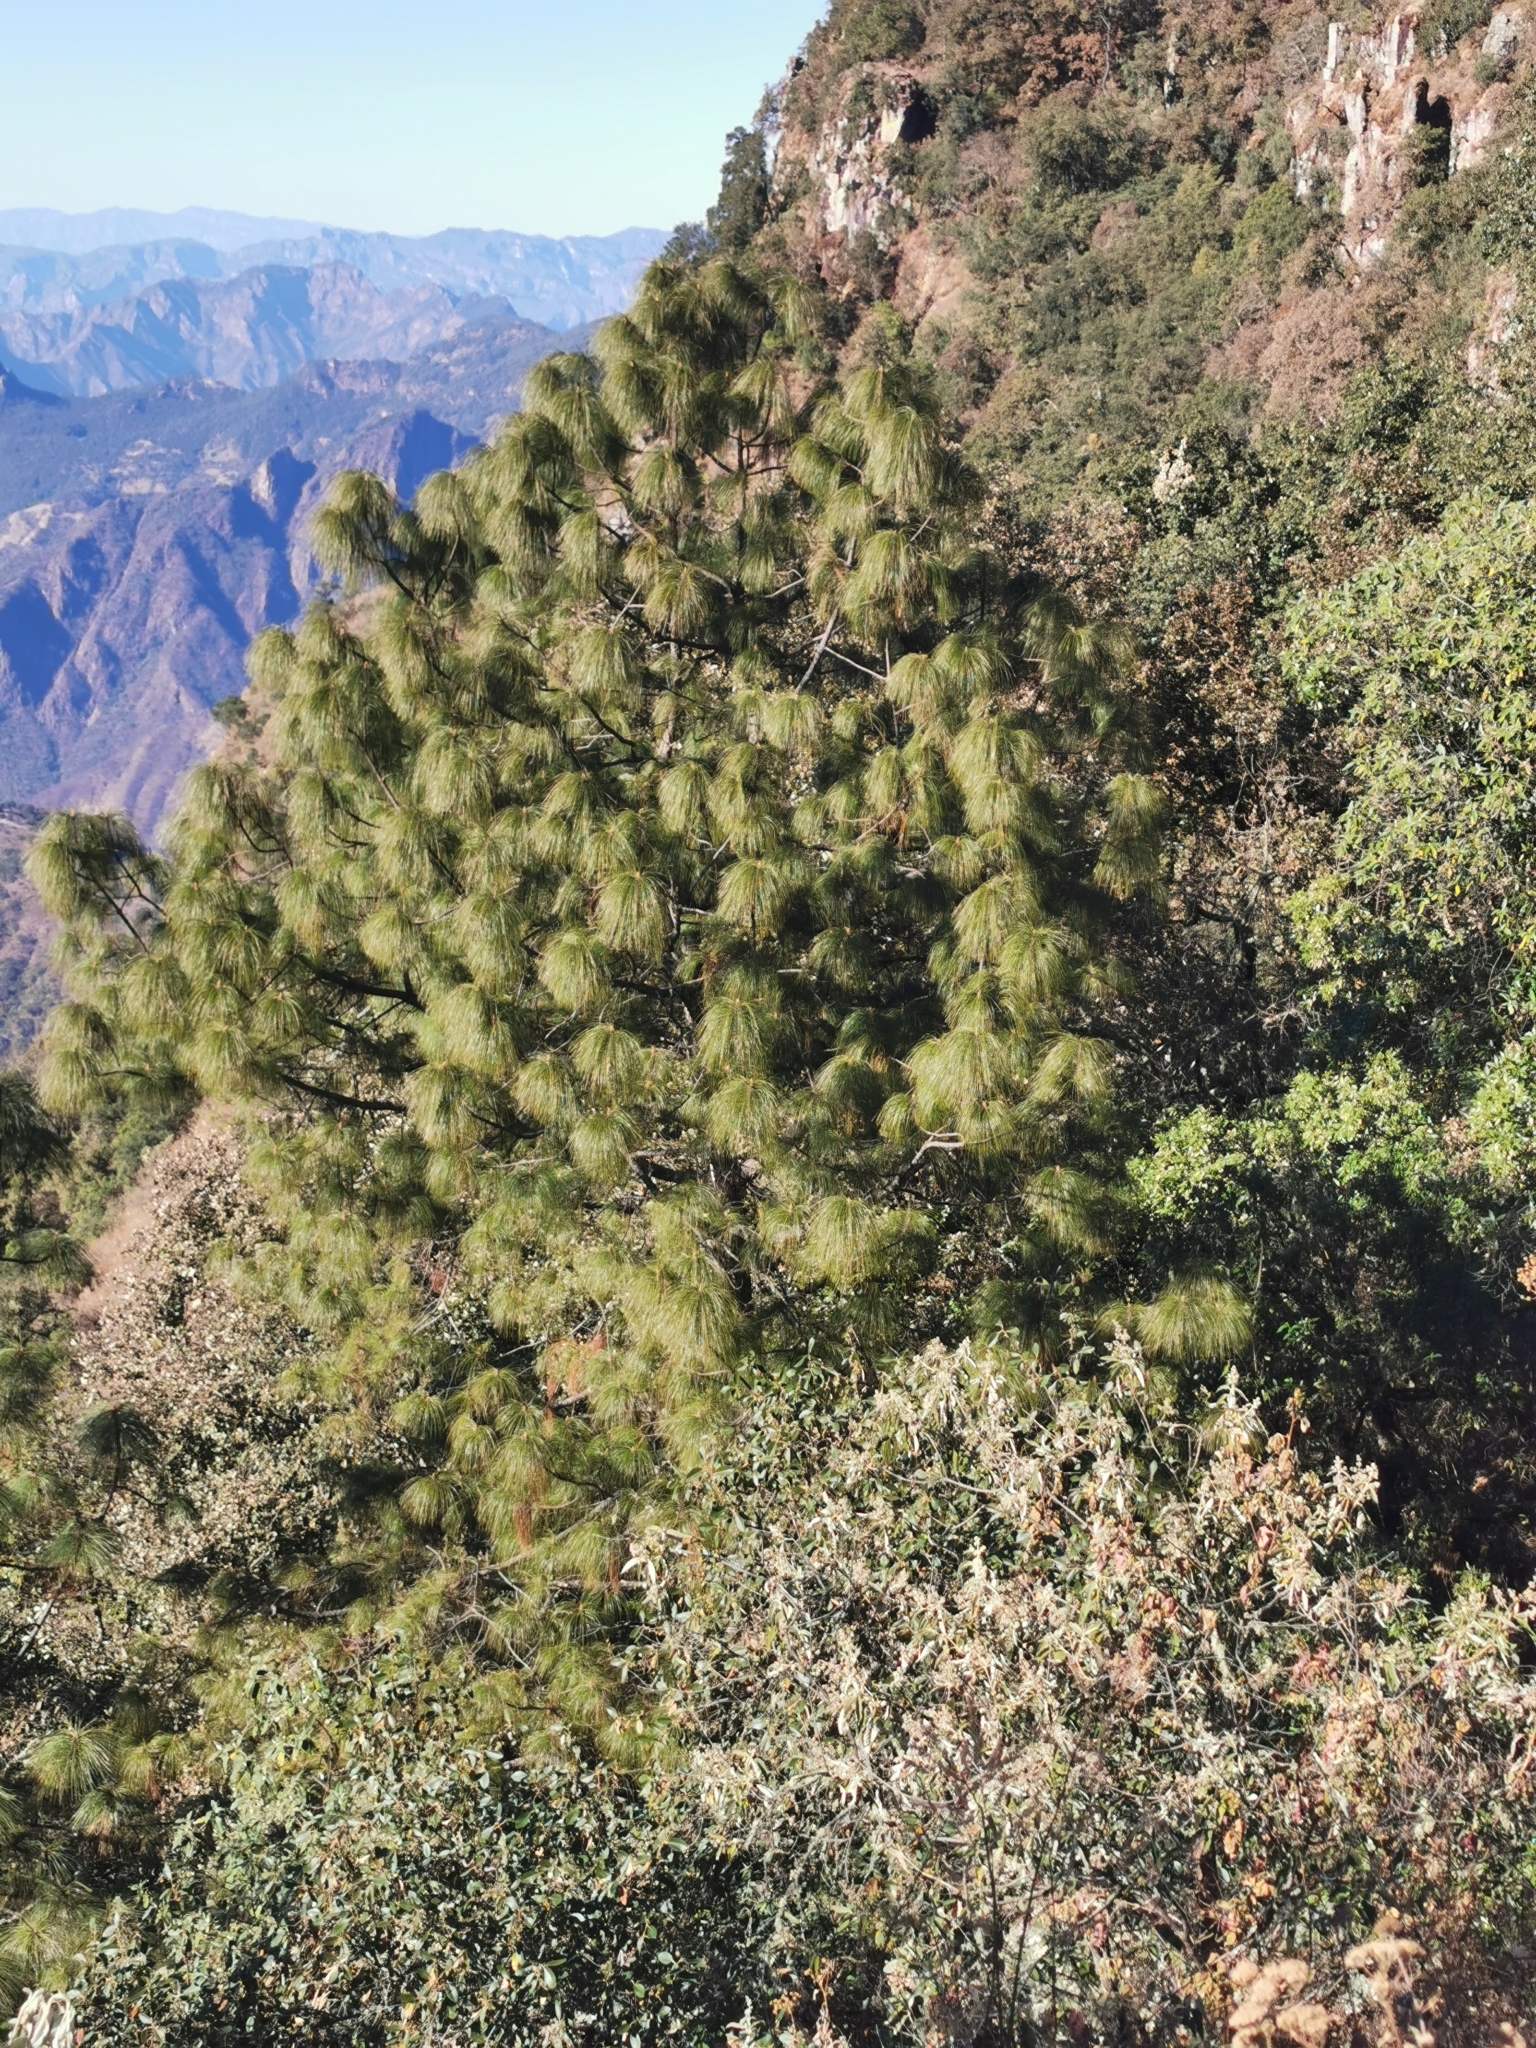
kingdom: Plantae
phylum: Tracheophyta
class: Pinopsida
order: Pinales
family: Pinaceae
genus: Pinus
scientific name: Pinus douglasiana
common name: Douglas pine
